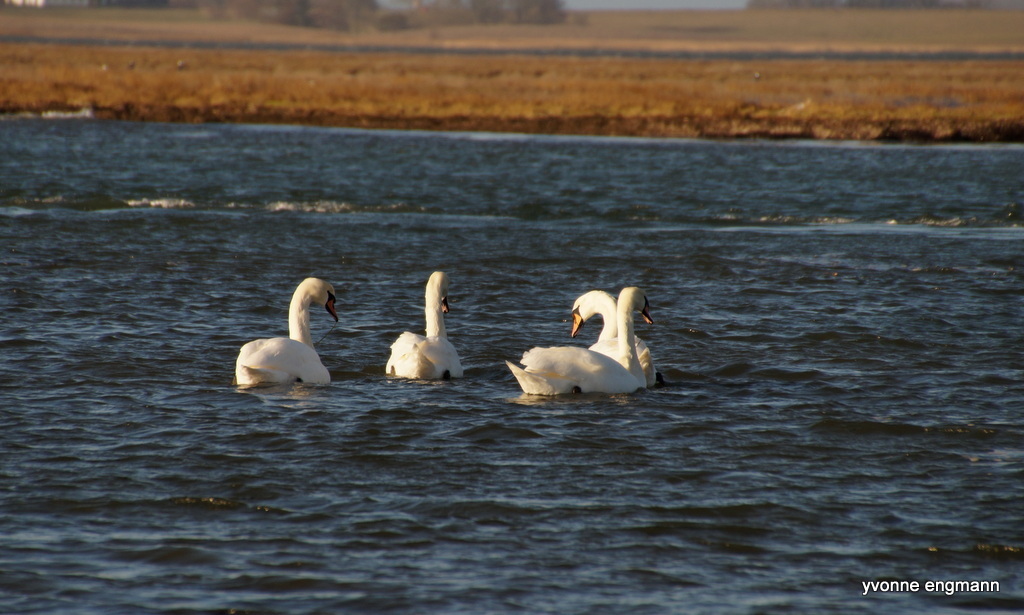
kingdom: Animalia
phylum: Chordata
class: Aves
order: Anseriformes
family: Anatidae
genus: Cygnus
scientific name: Cygnus olor
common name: Mute swan
